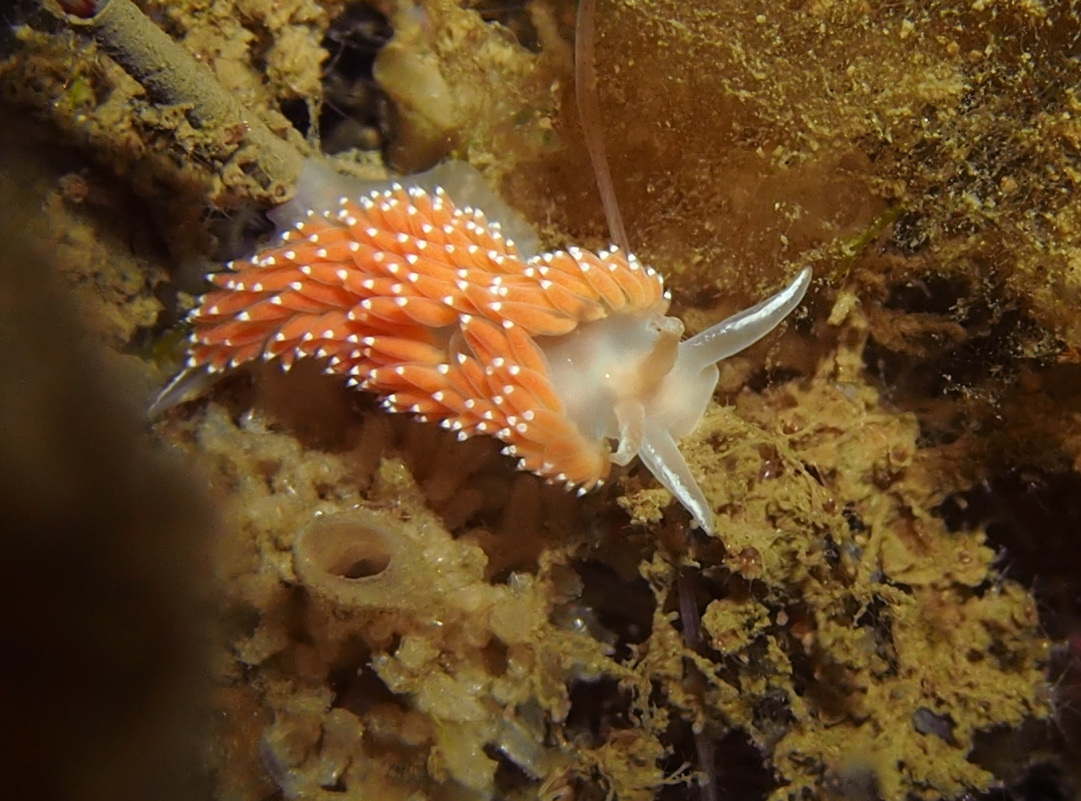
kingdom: Animalia
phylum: Mollusca
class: Gastropoda
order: Nudibranchia
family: Coryphellidae
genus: Coryphella
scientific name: Coryphella verrucosa
